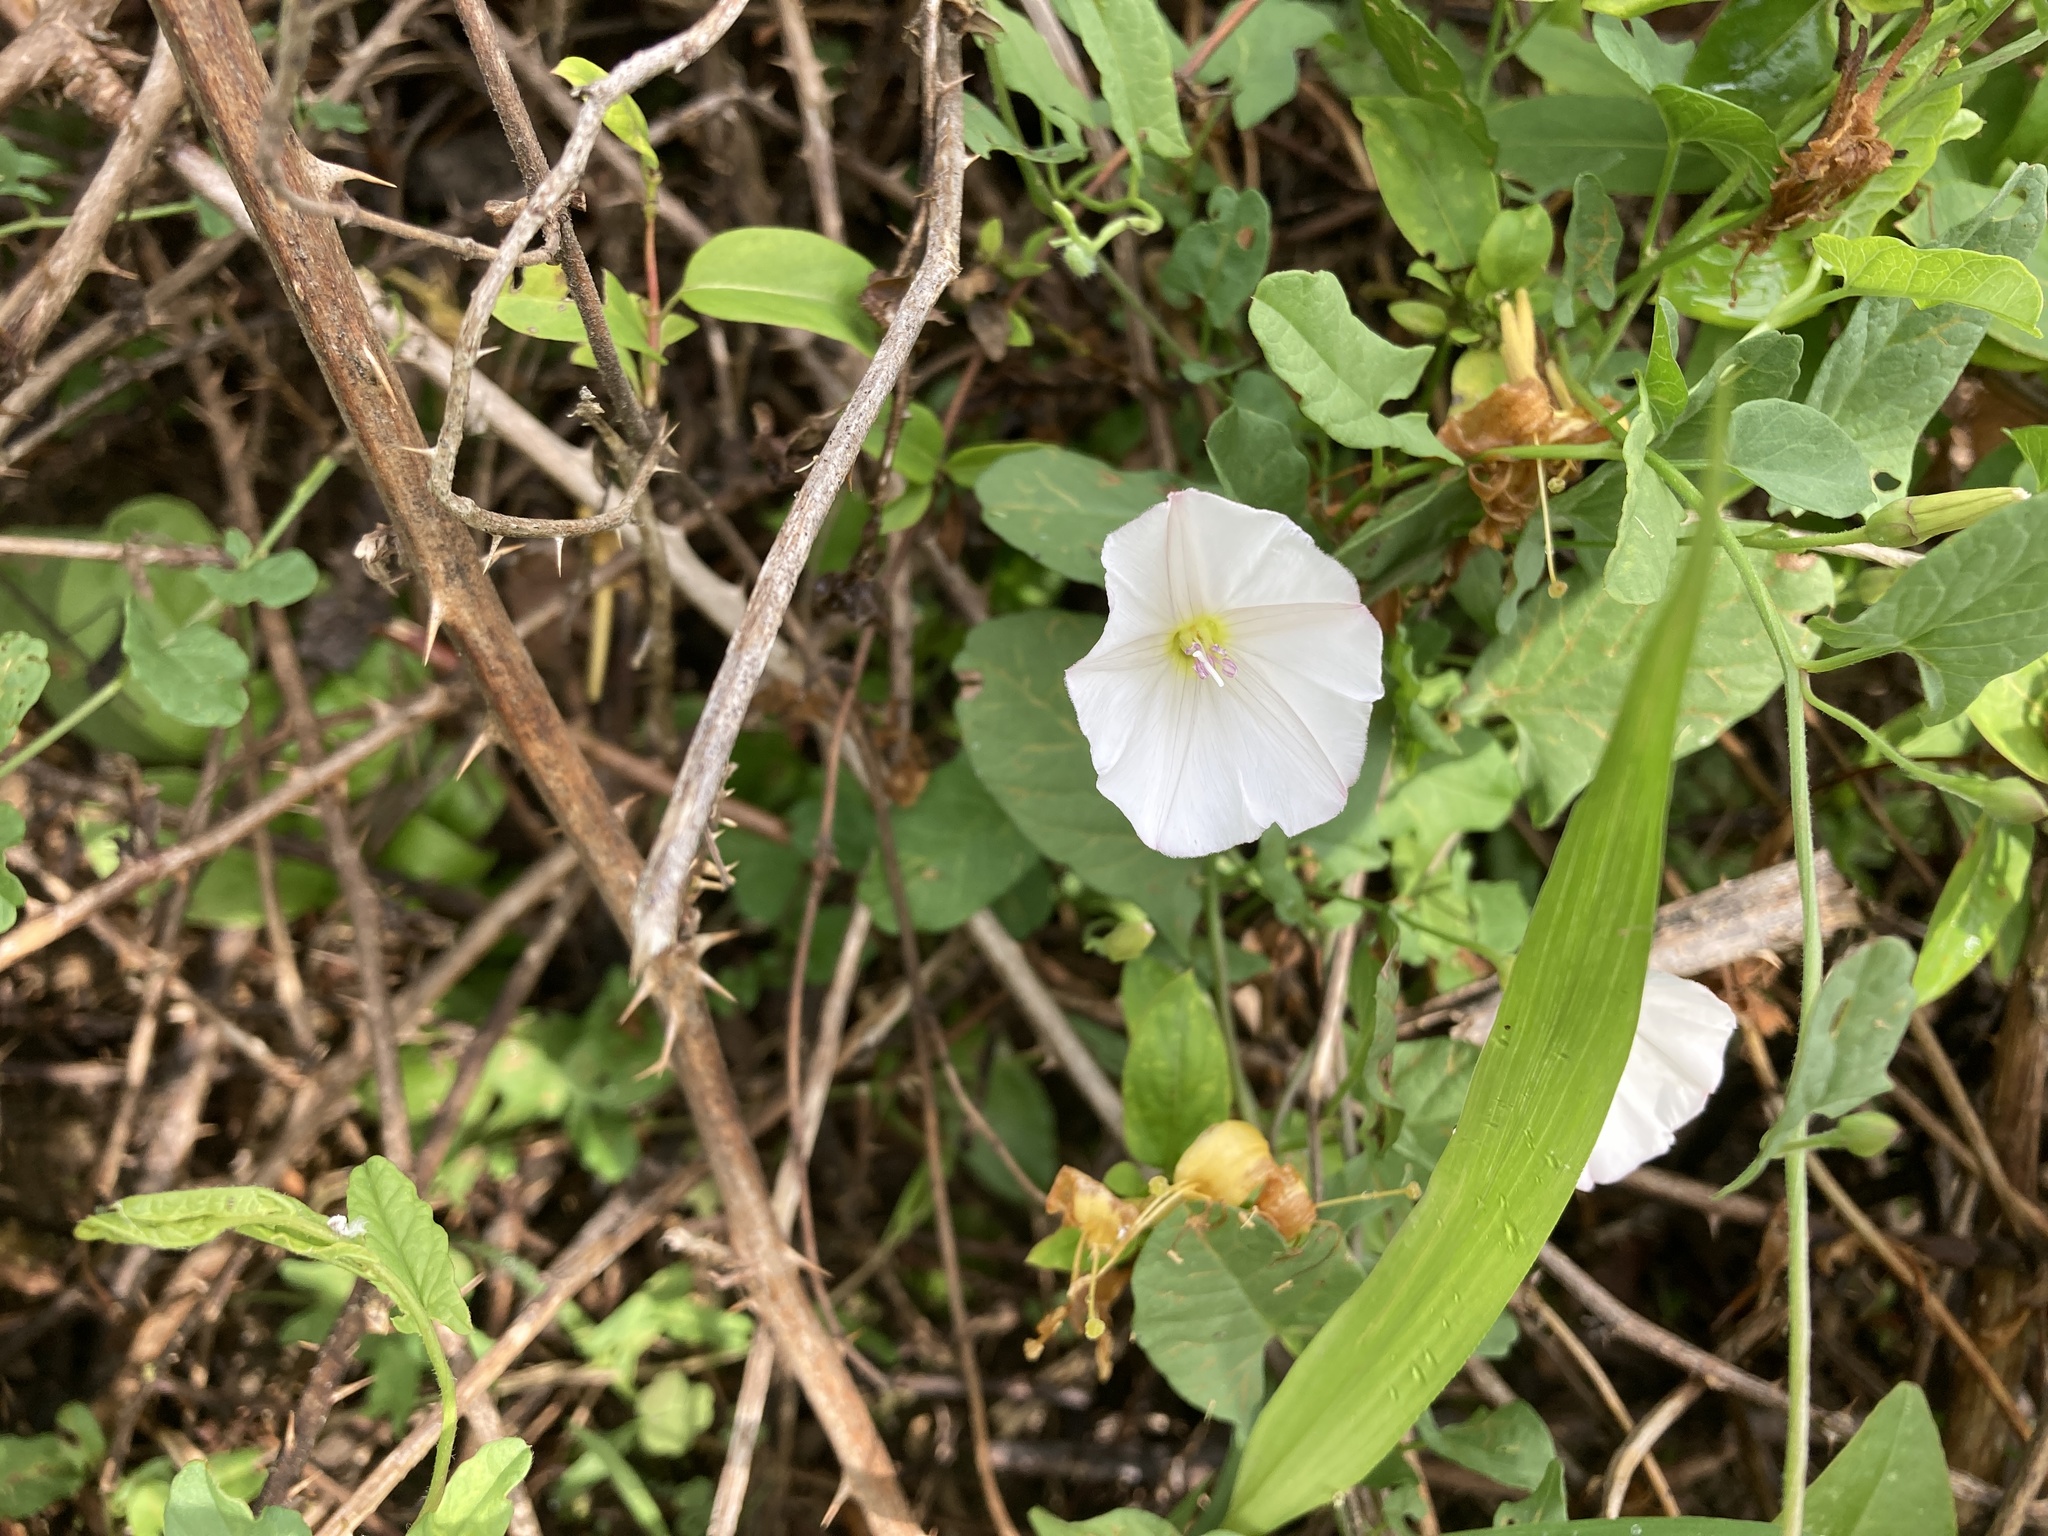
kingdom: Plantae
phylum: Tracheophyta
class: Magnoliopsida
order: Solanales
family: Convolvulaceae
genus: Convolvulus
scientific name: Convolvulus arvensis
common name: Field bindweed
